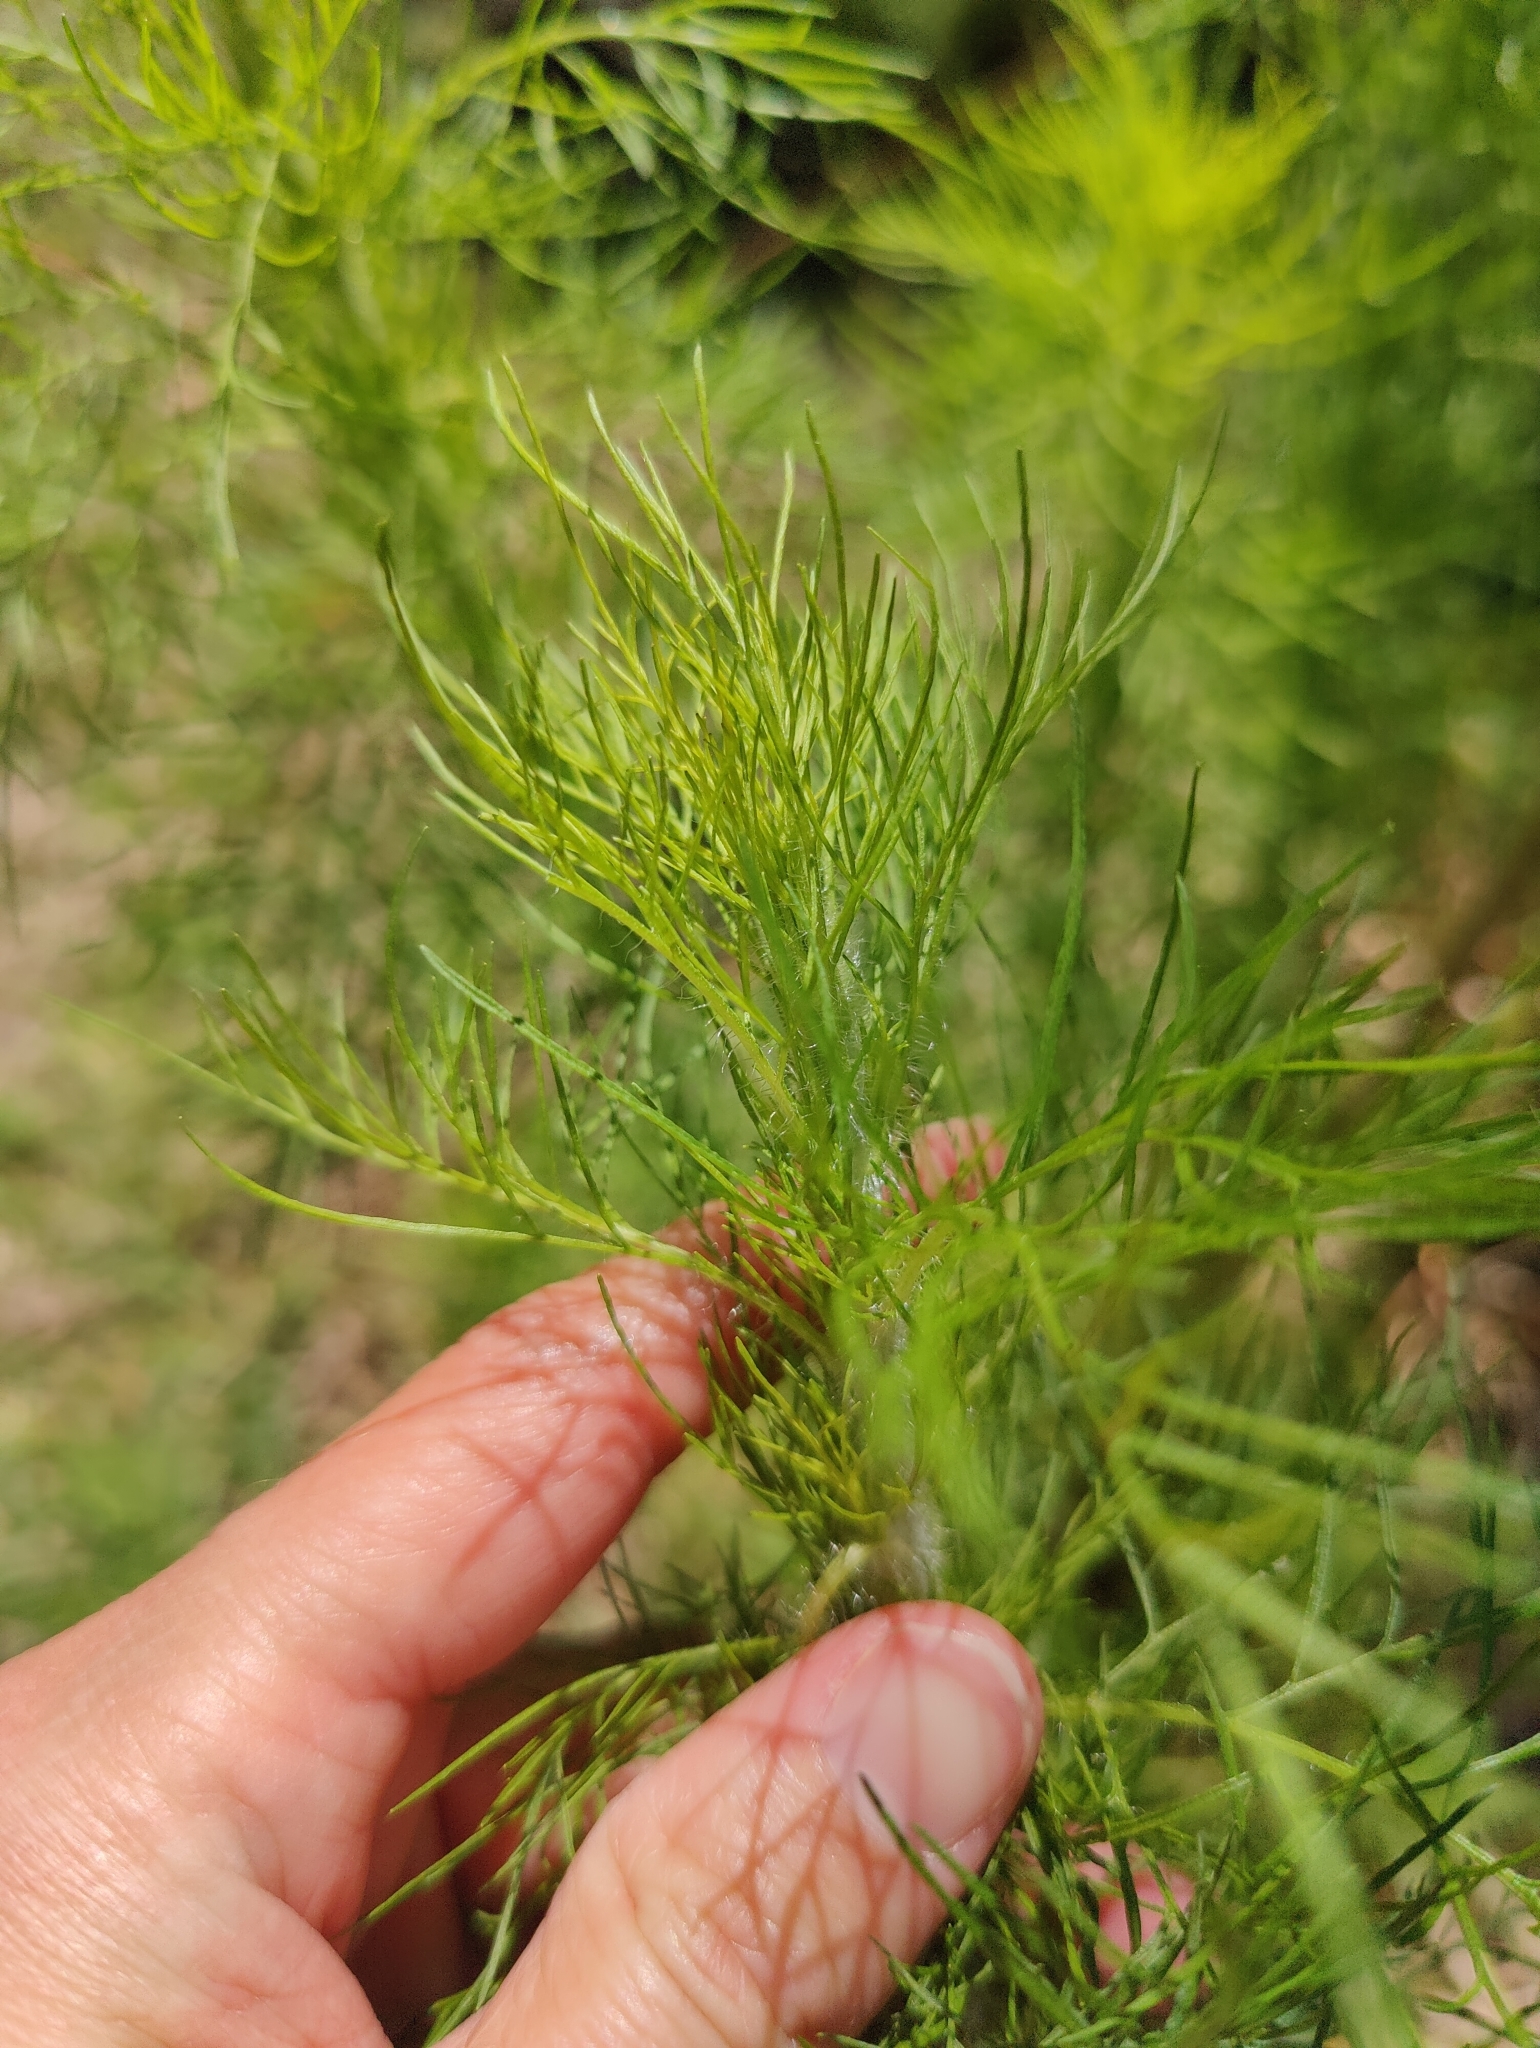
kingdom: Plantae
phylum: Tracheophyta
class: Magnoliopsida
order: Asterales
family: Asteraceae
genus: Eupatorium
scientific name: Eupatorium capillifolium
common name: Dog-fennel
